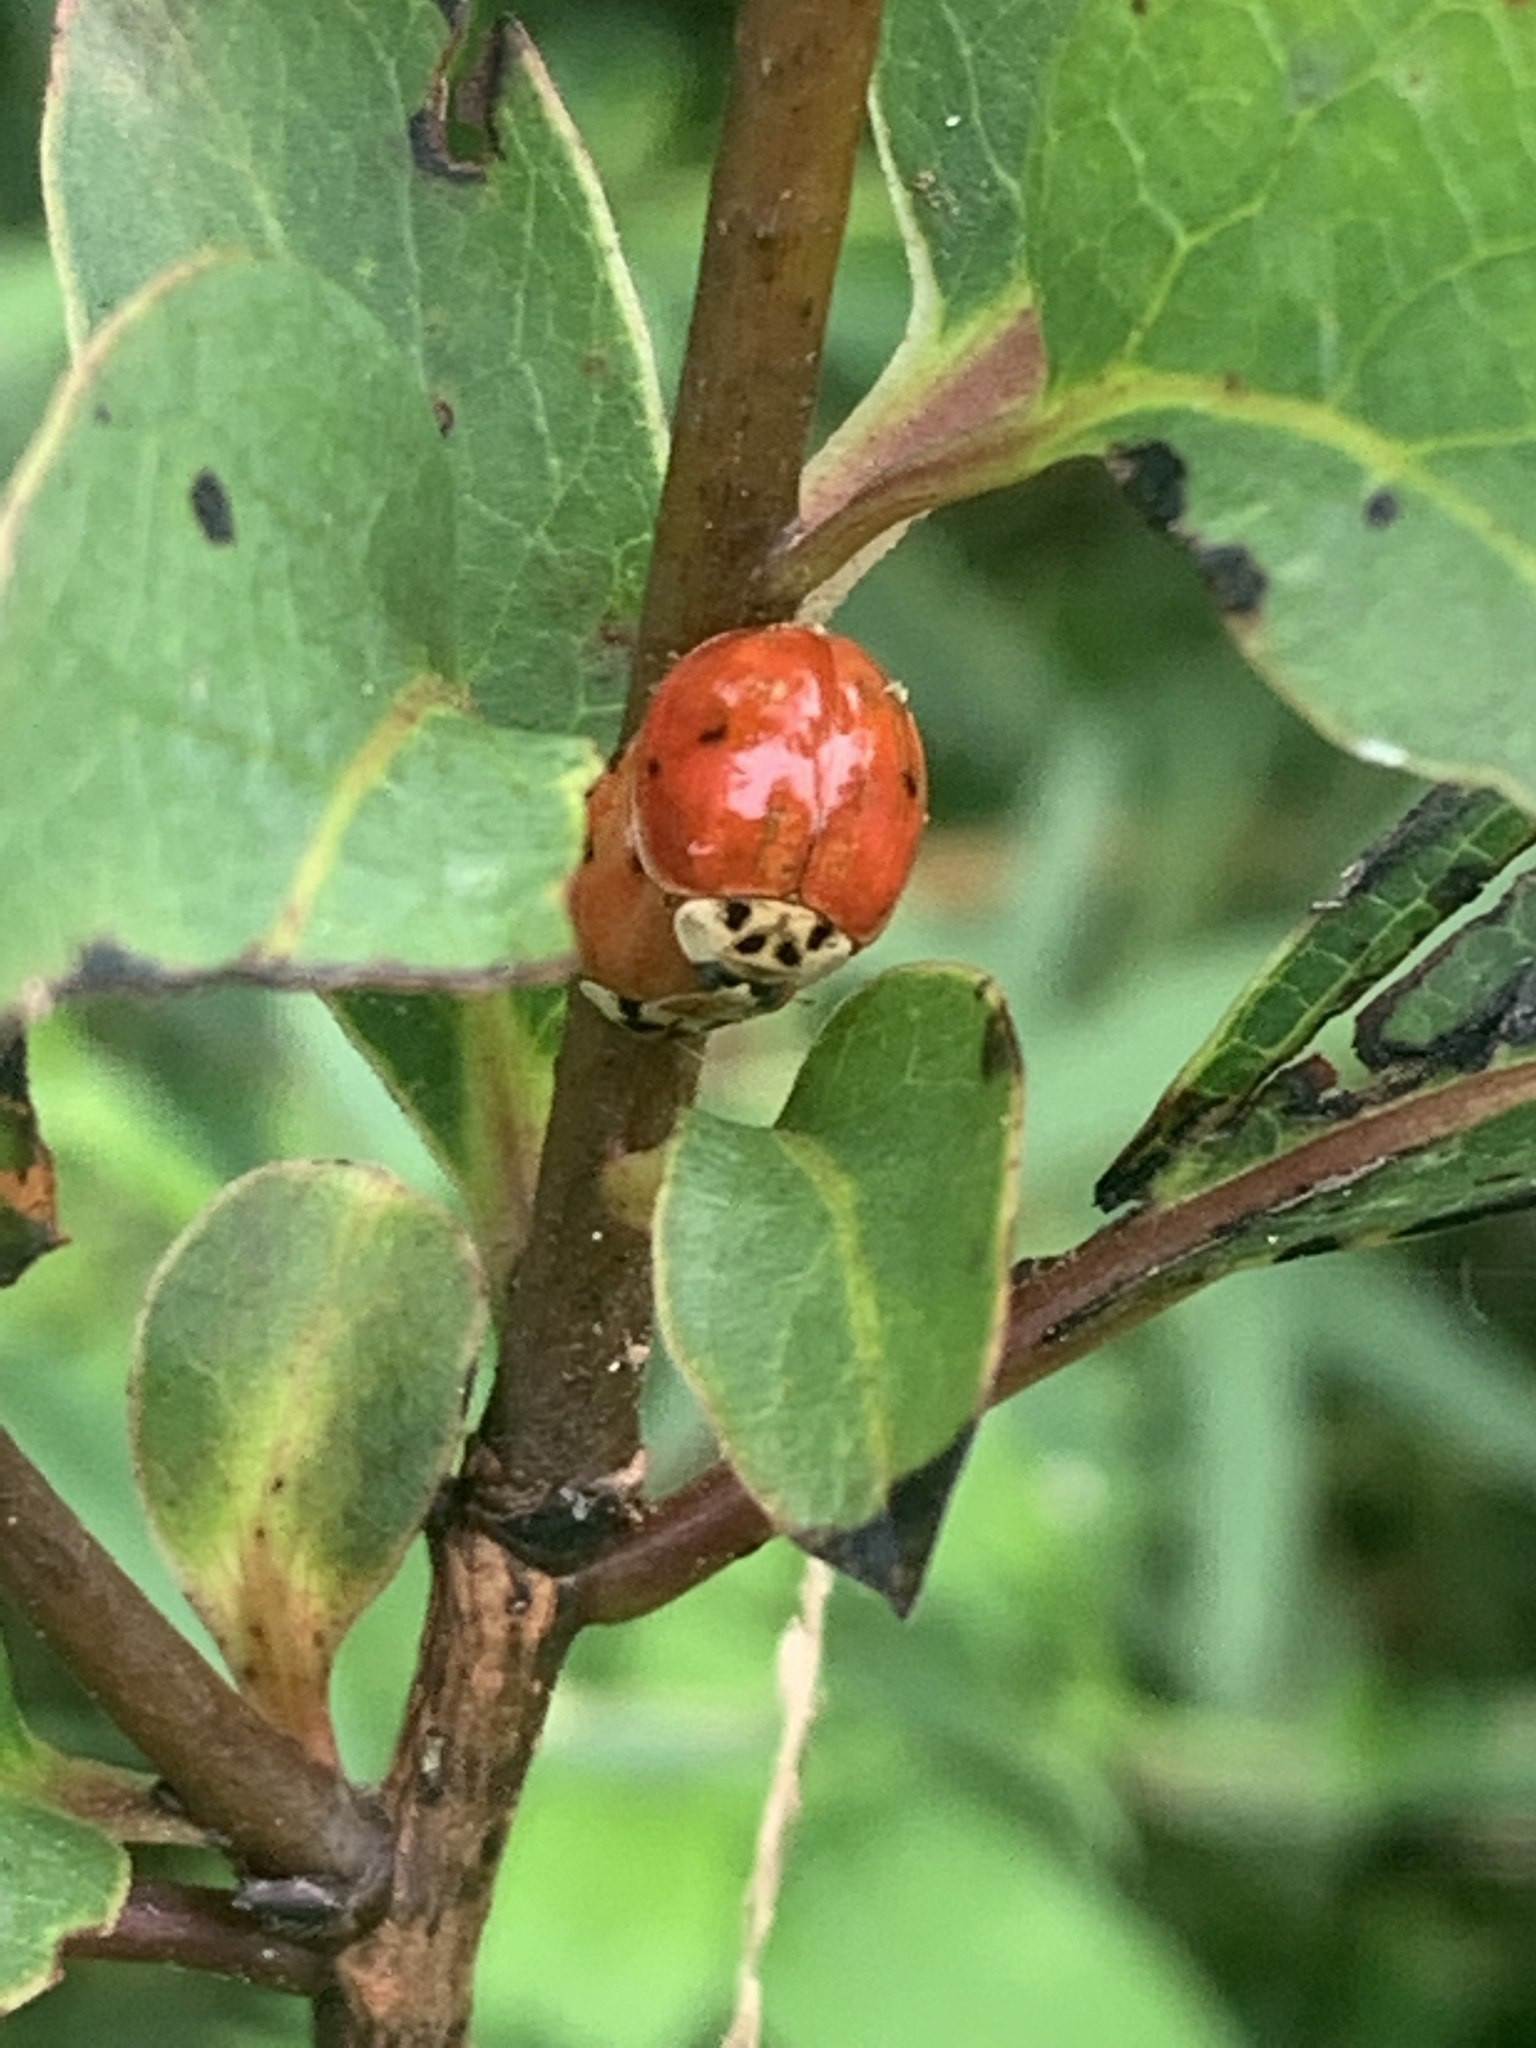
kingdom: Animalia
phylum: Arthropoda
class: Insecta
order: Coleoptera
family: Coccinellidae
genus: Harmonia
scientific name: Harmonia axyridis
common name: Harlequin ladybird
